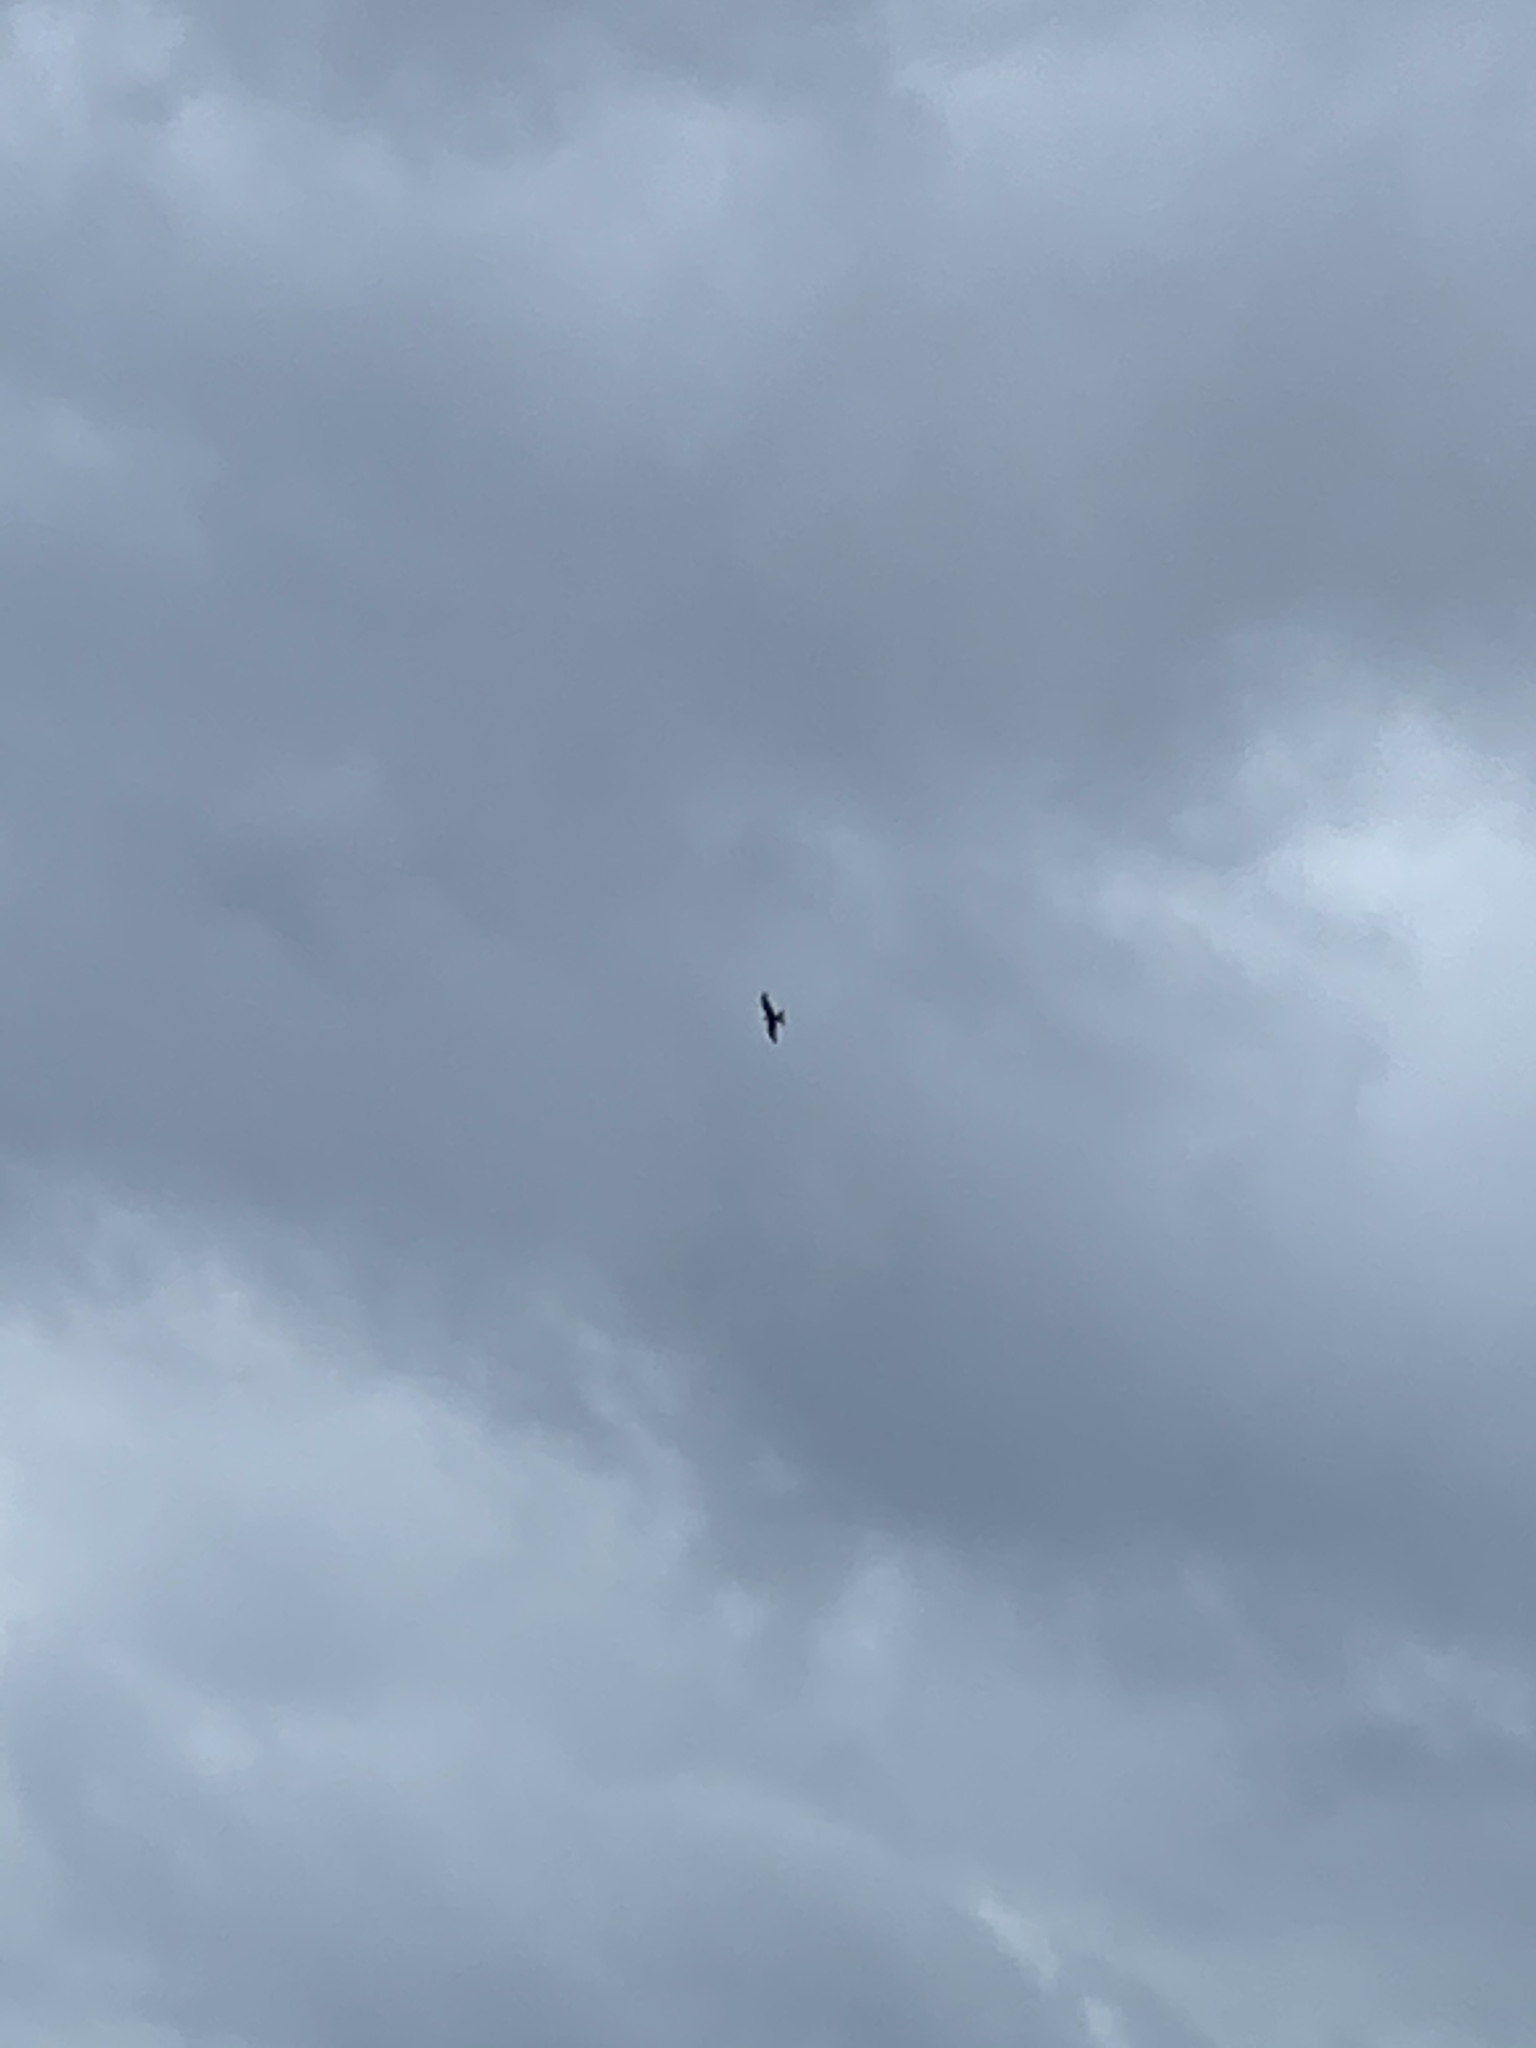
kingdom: Animalia
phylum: Chordata
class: Aves
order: Accipitriformes
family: Accipitridae
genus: Milvus
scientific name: Milvus milvus
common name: Red kite
